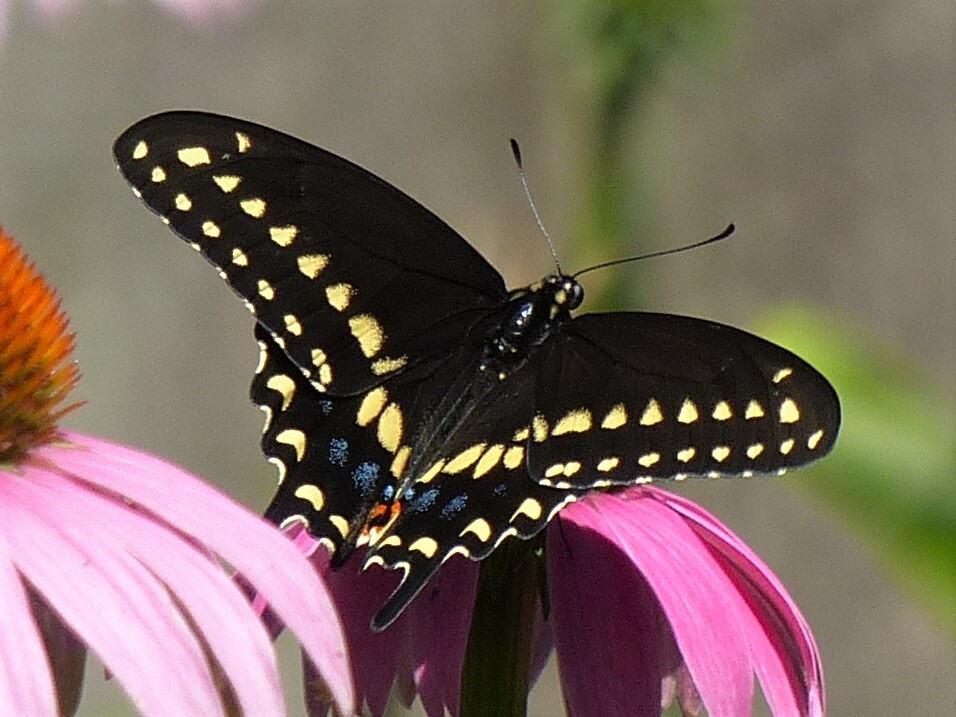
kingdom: Animalia
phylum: Arthropoda
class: Insecta
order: Lepidoptera
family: Papilionidae
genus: Papilio
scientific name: Papilio polyxenes
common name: Black swallowtail
